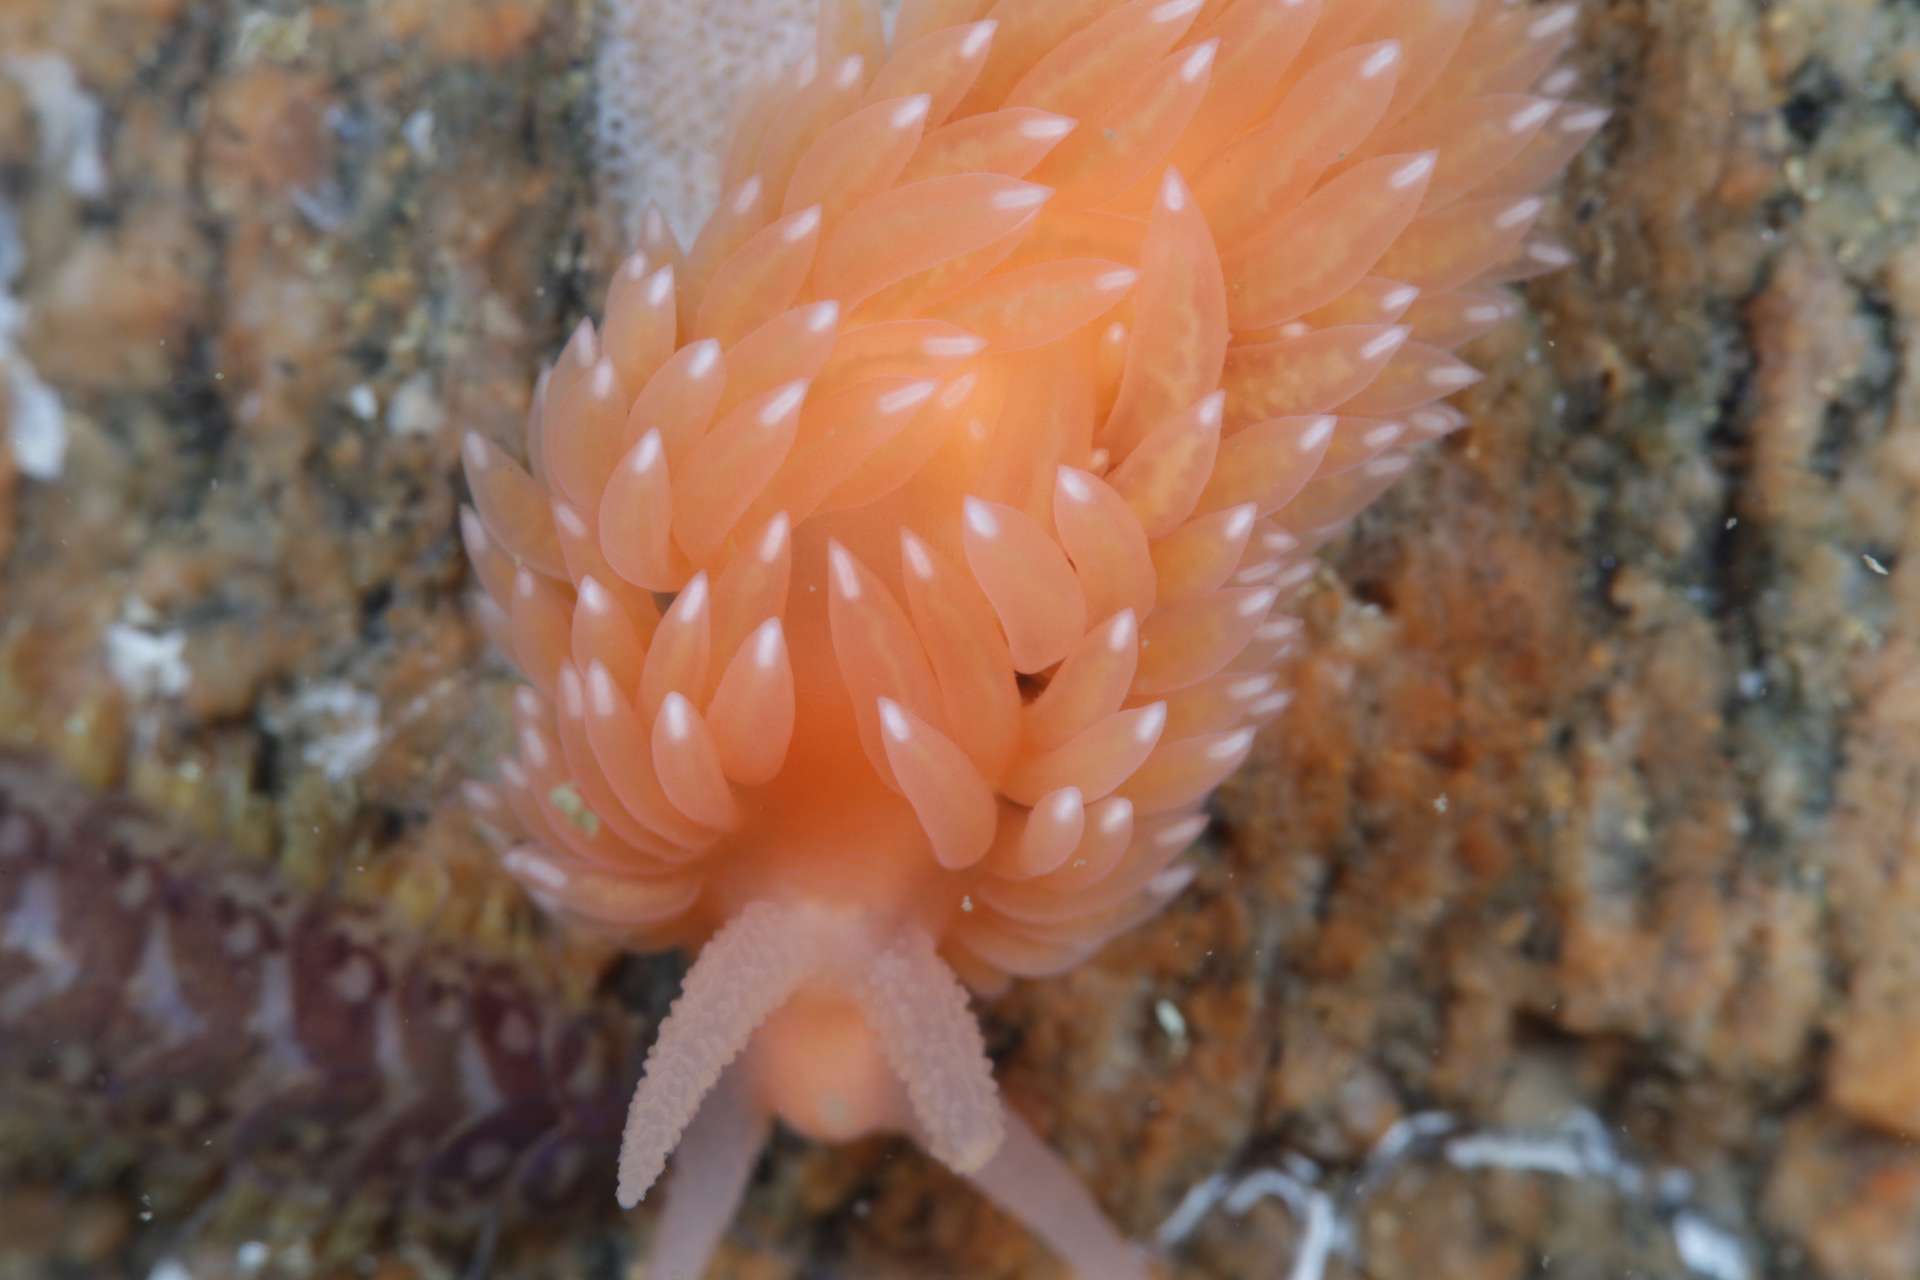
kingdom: Animalia
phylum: Mollusca
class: Gastropoda
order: Nudibranchia
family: Aeolidiidae
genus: Berghia
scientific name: Berghia norvegica
